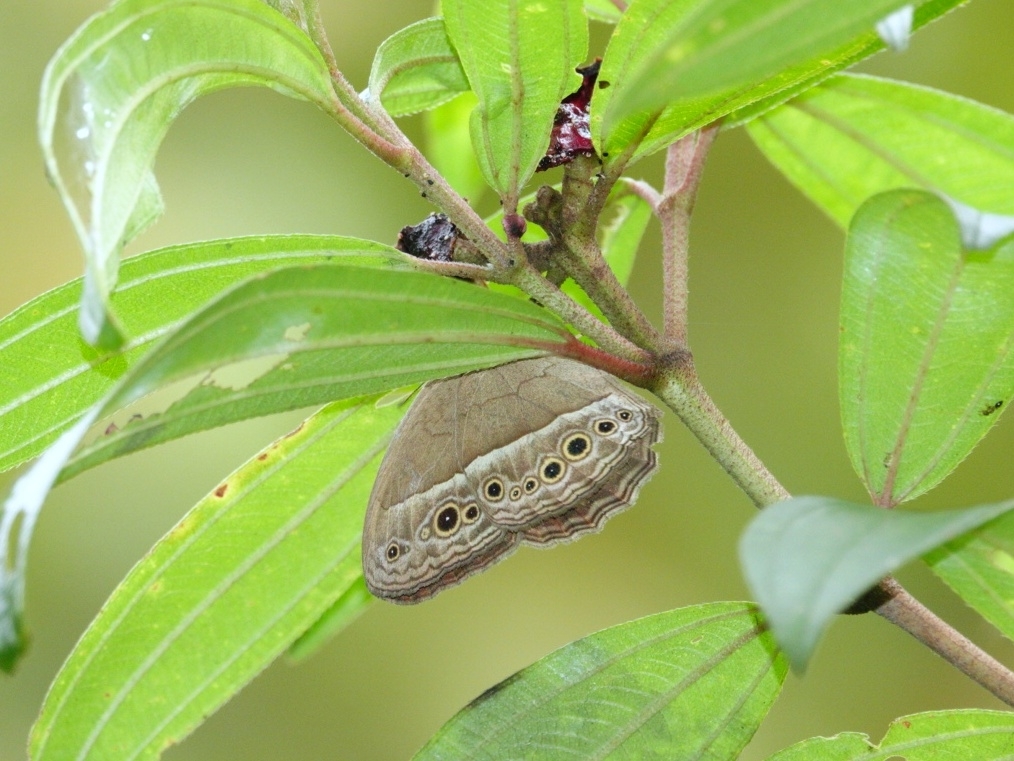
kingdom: Animalia
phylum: Arthropoda
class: Insecta
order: Lepidoptera
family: Nymphalidae
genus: Mycalesis
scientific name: Mycalesis perseoides
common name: Burmese bushbrown
